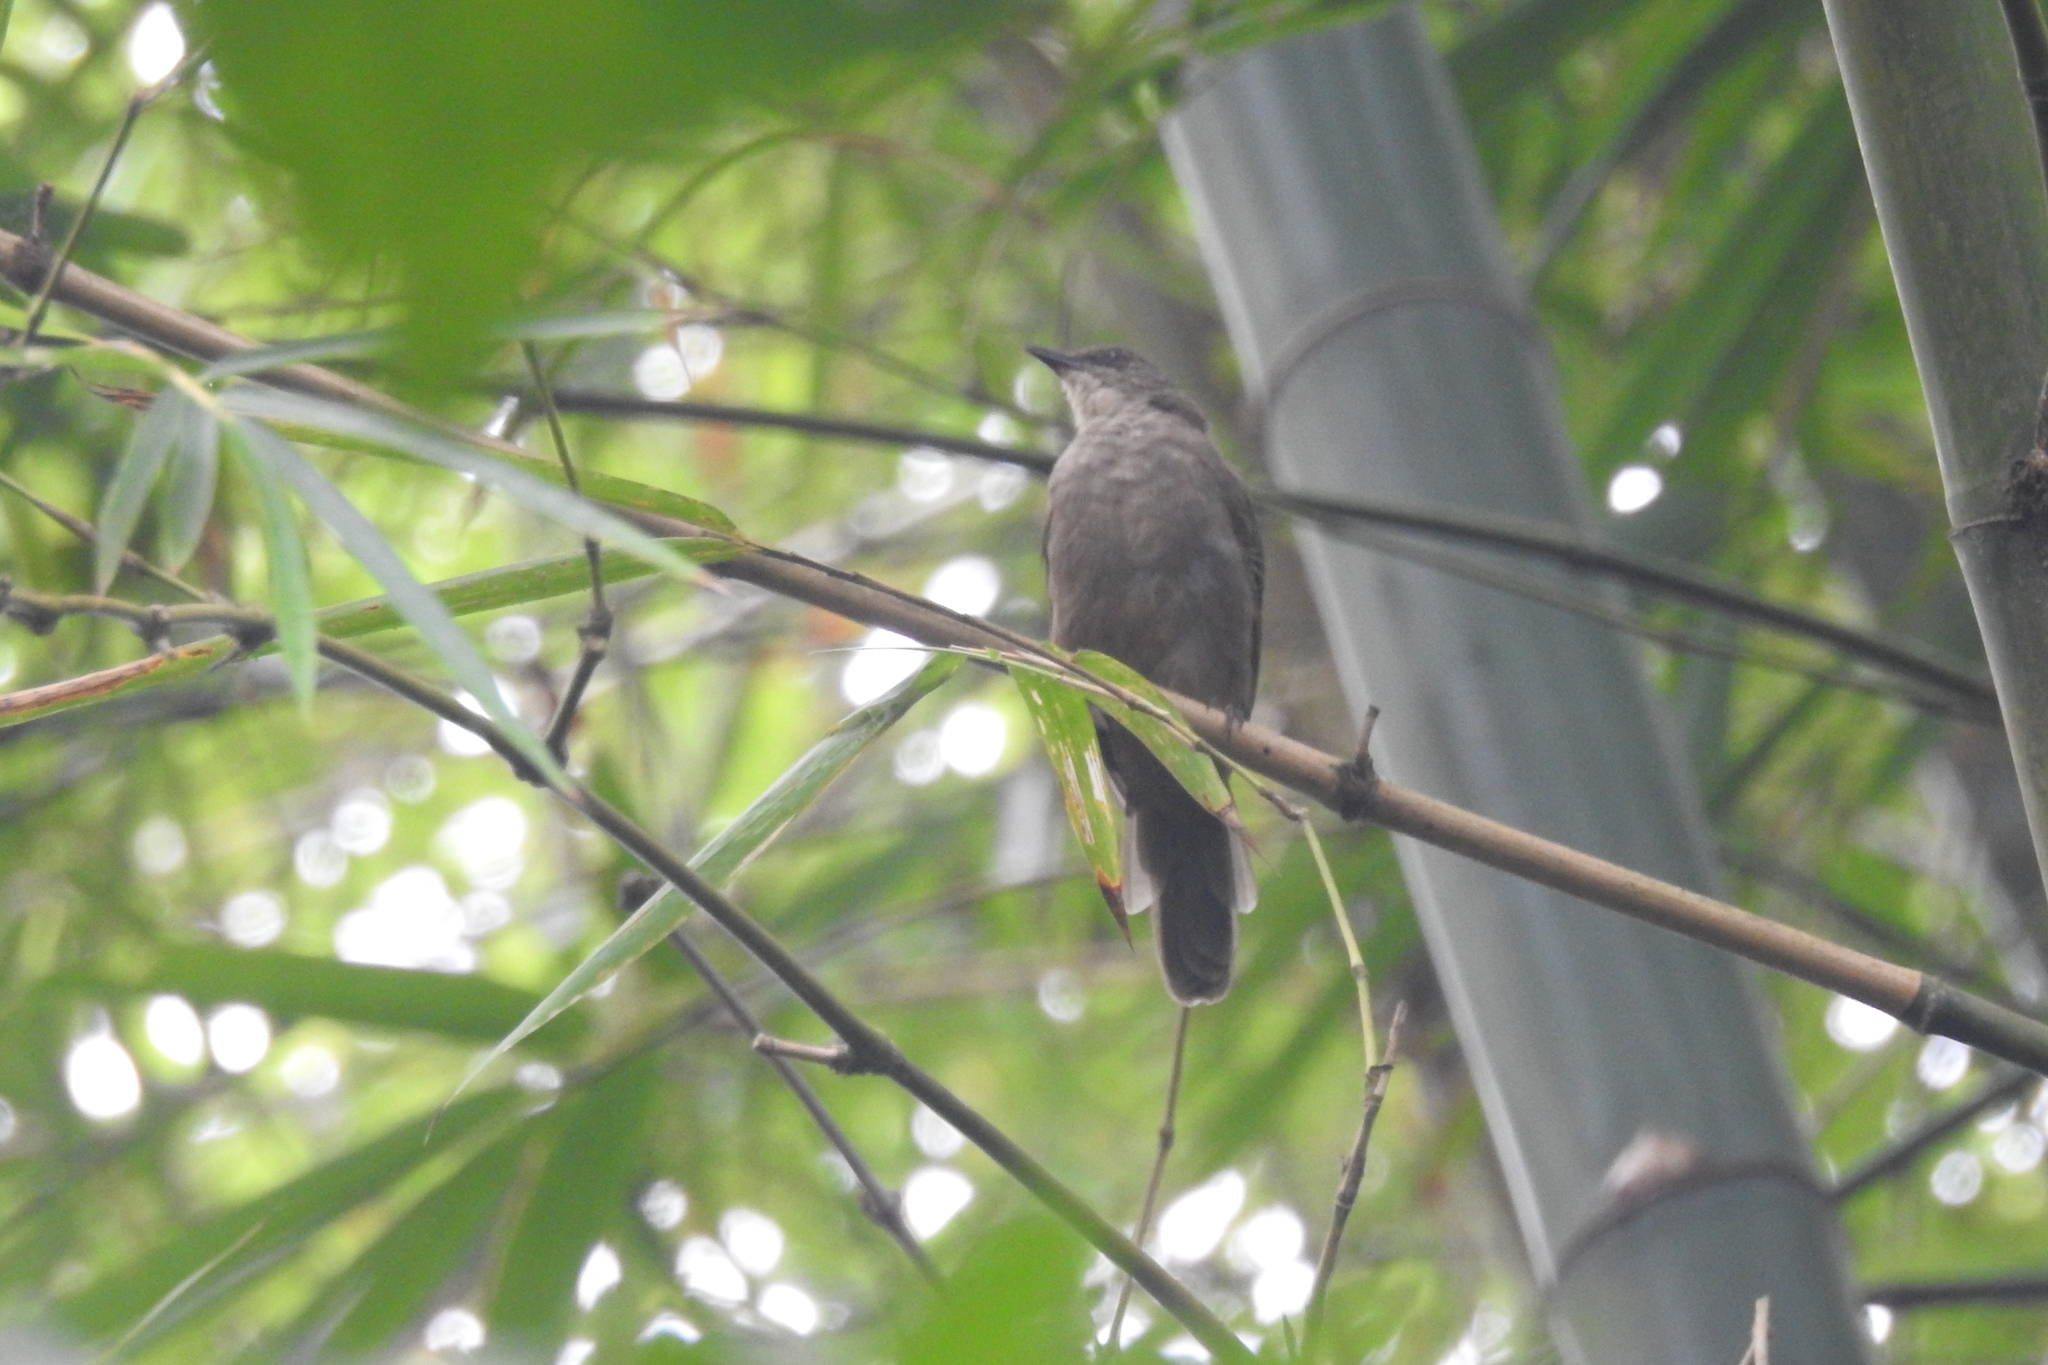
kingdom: Animalia
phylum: Chordata
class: Aves
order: Passeriformes
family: Pycnonotidae
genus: Pycnonotus
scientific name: Pycnonotus plumosus
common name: Olive-winged bulbul
